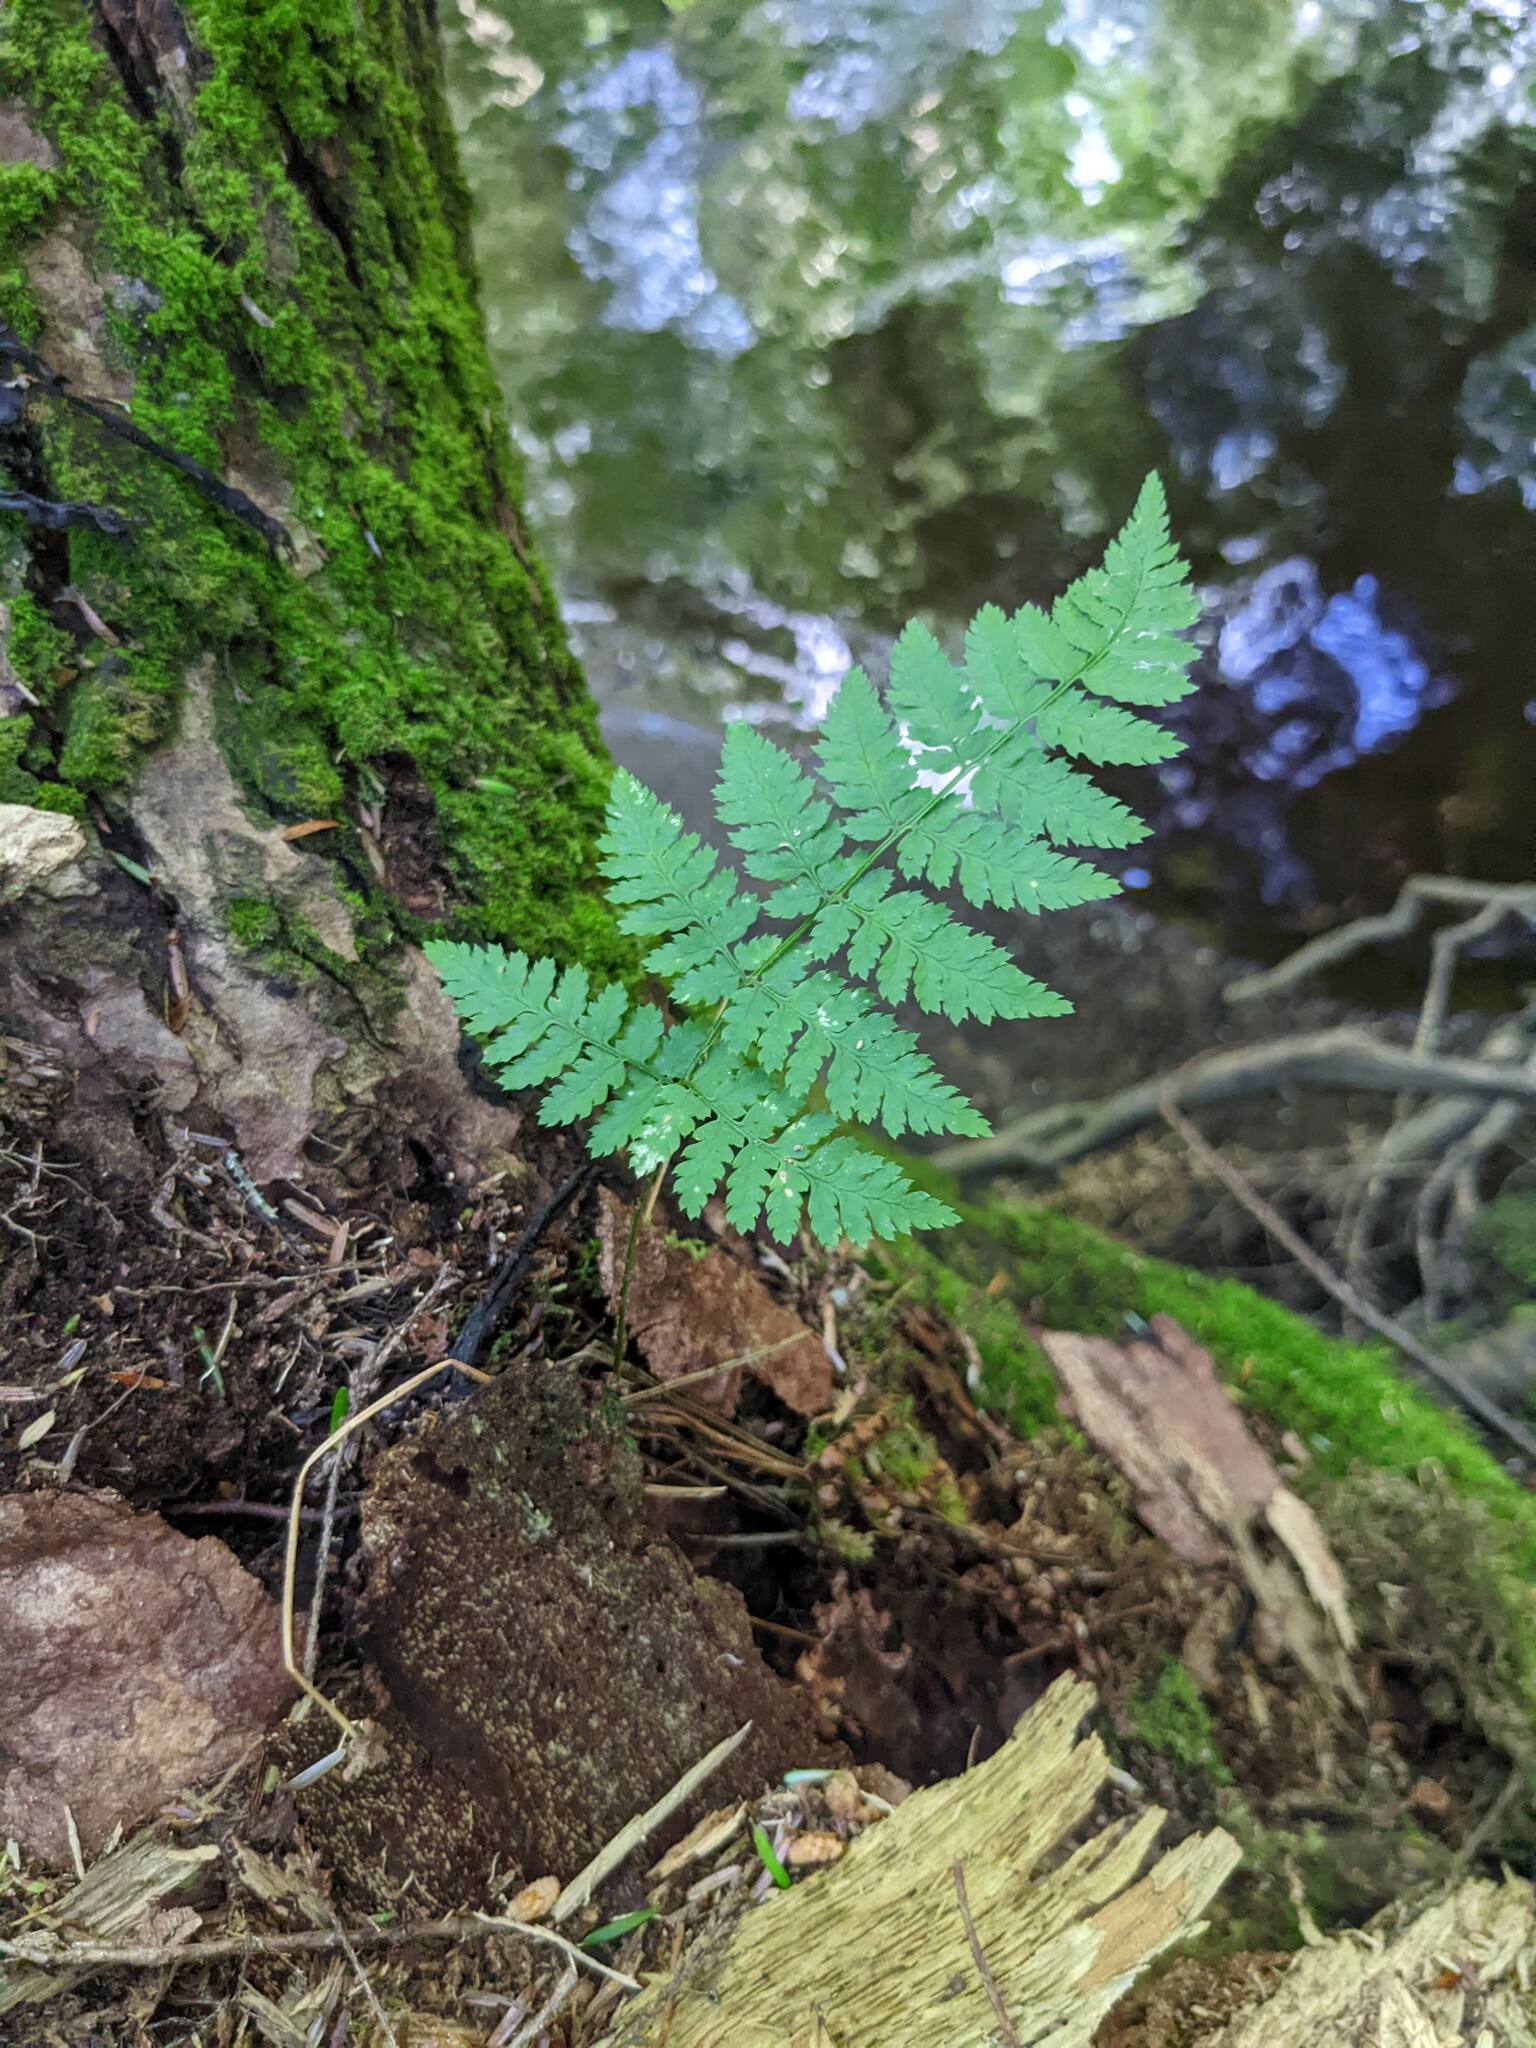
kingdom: Plantae
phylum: Tracheophyta
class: Polypodiopsida
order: Polypodiales
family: Dryopteridaceae
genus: Dryopteris
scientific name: Dryopteris intermedia
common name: Evergreen wood fern
